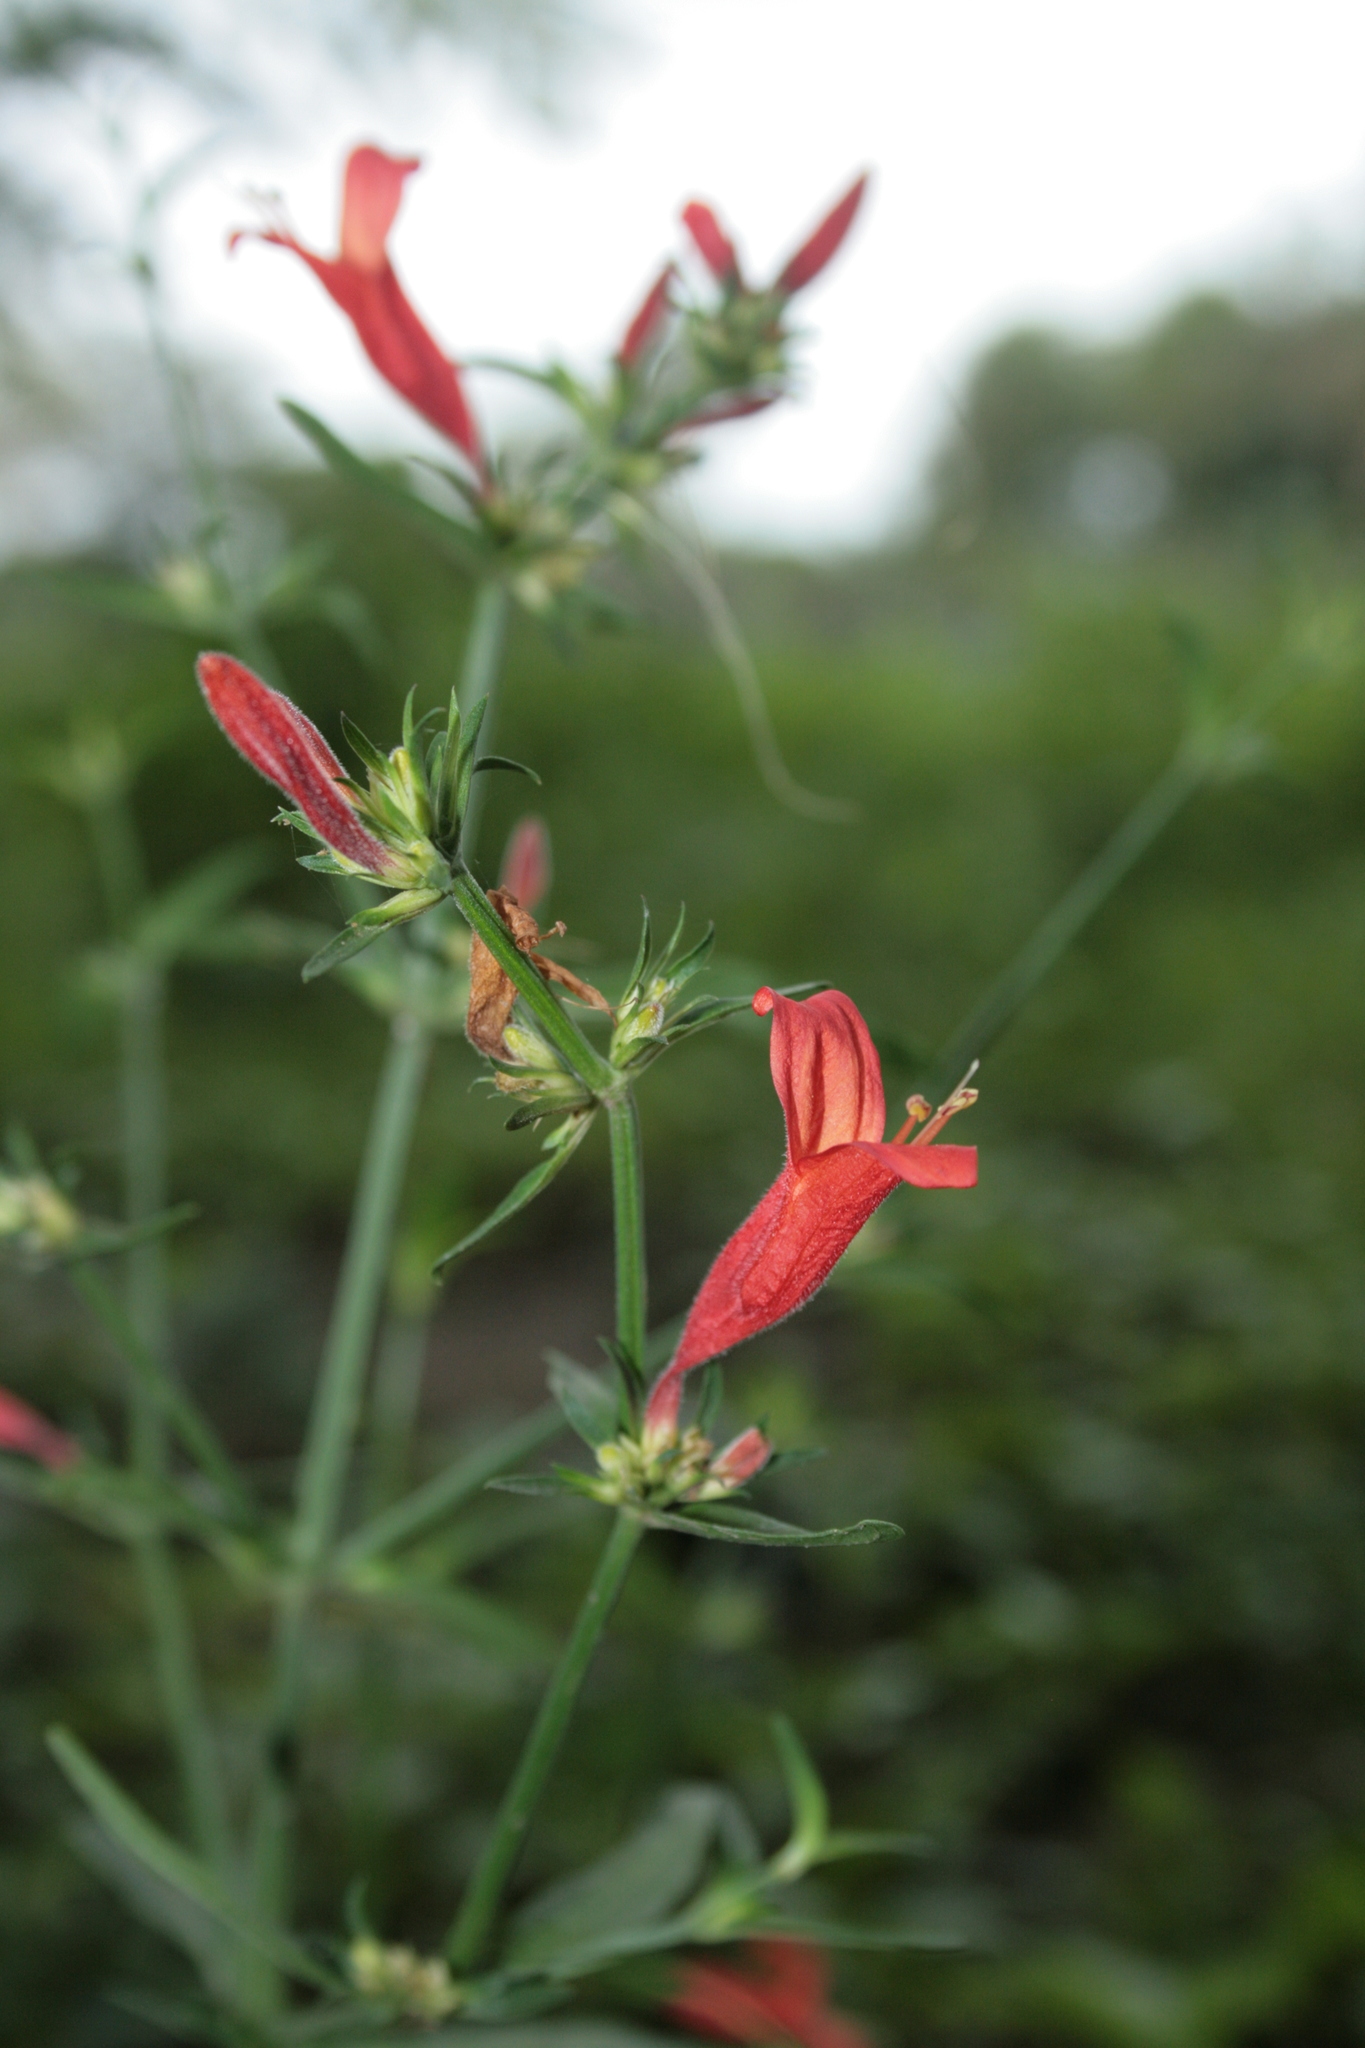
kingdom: Plantae
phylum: Tracheophyta
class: Magnoliopsida
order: Lamiales
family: Acanthaceae
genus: Dicliptera
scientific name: Dicliptera squarrosa
